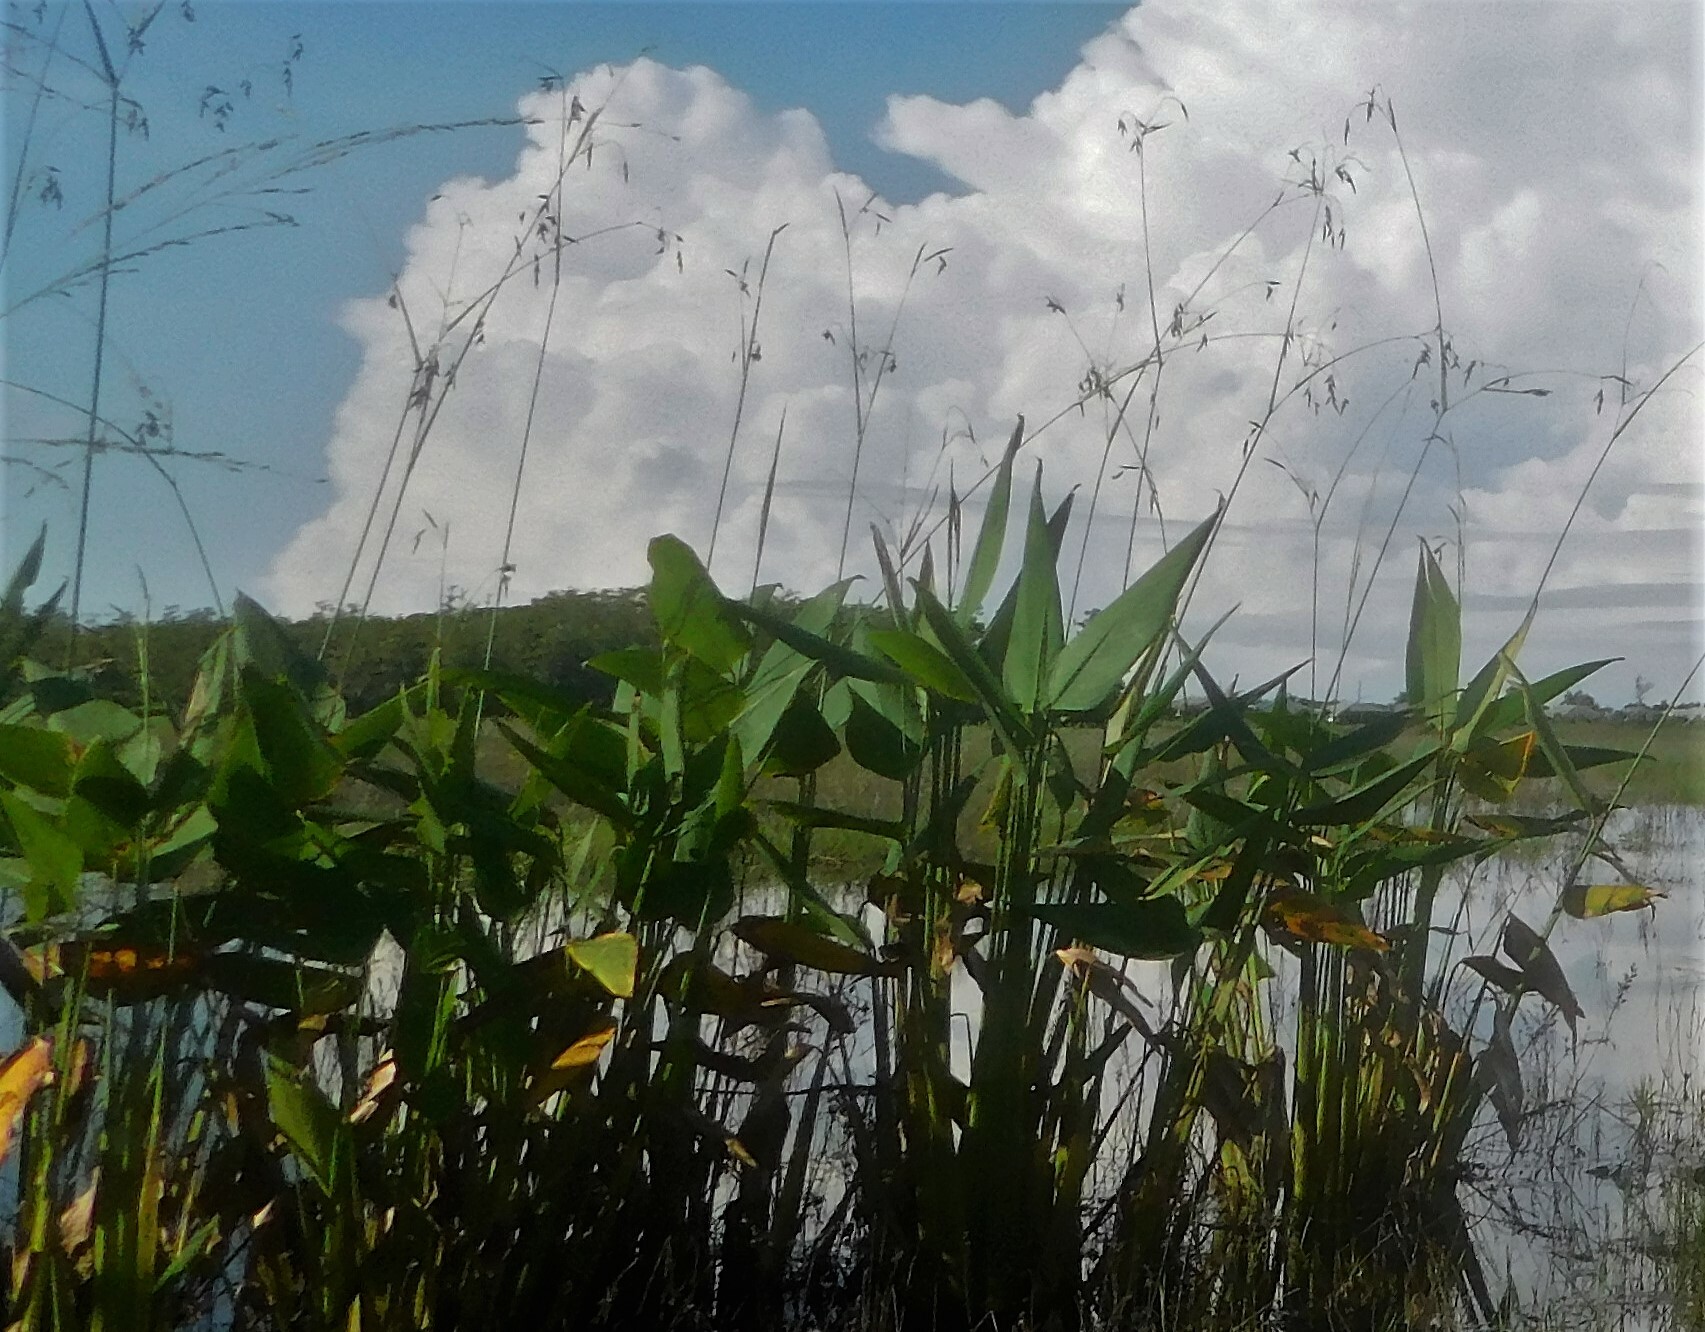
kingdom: Plantae
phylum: Tracheophyta
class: Liliopsida
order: Zingiberales
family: Marantaceae
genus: Thalia
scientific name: Thalia geniculata
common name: Arrowroot
